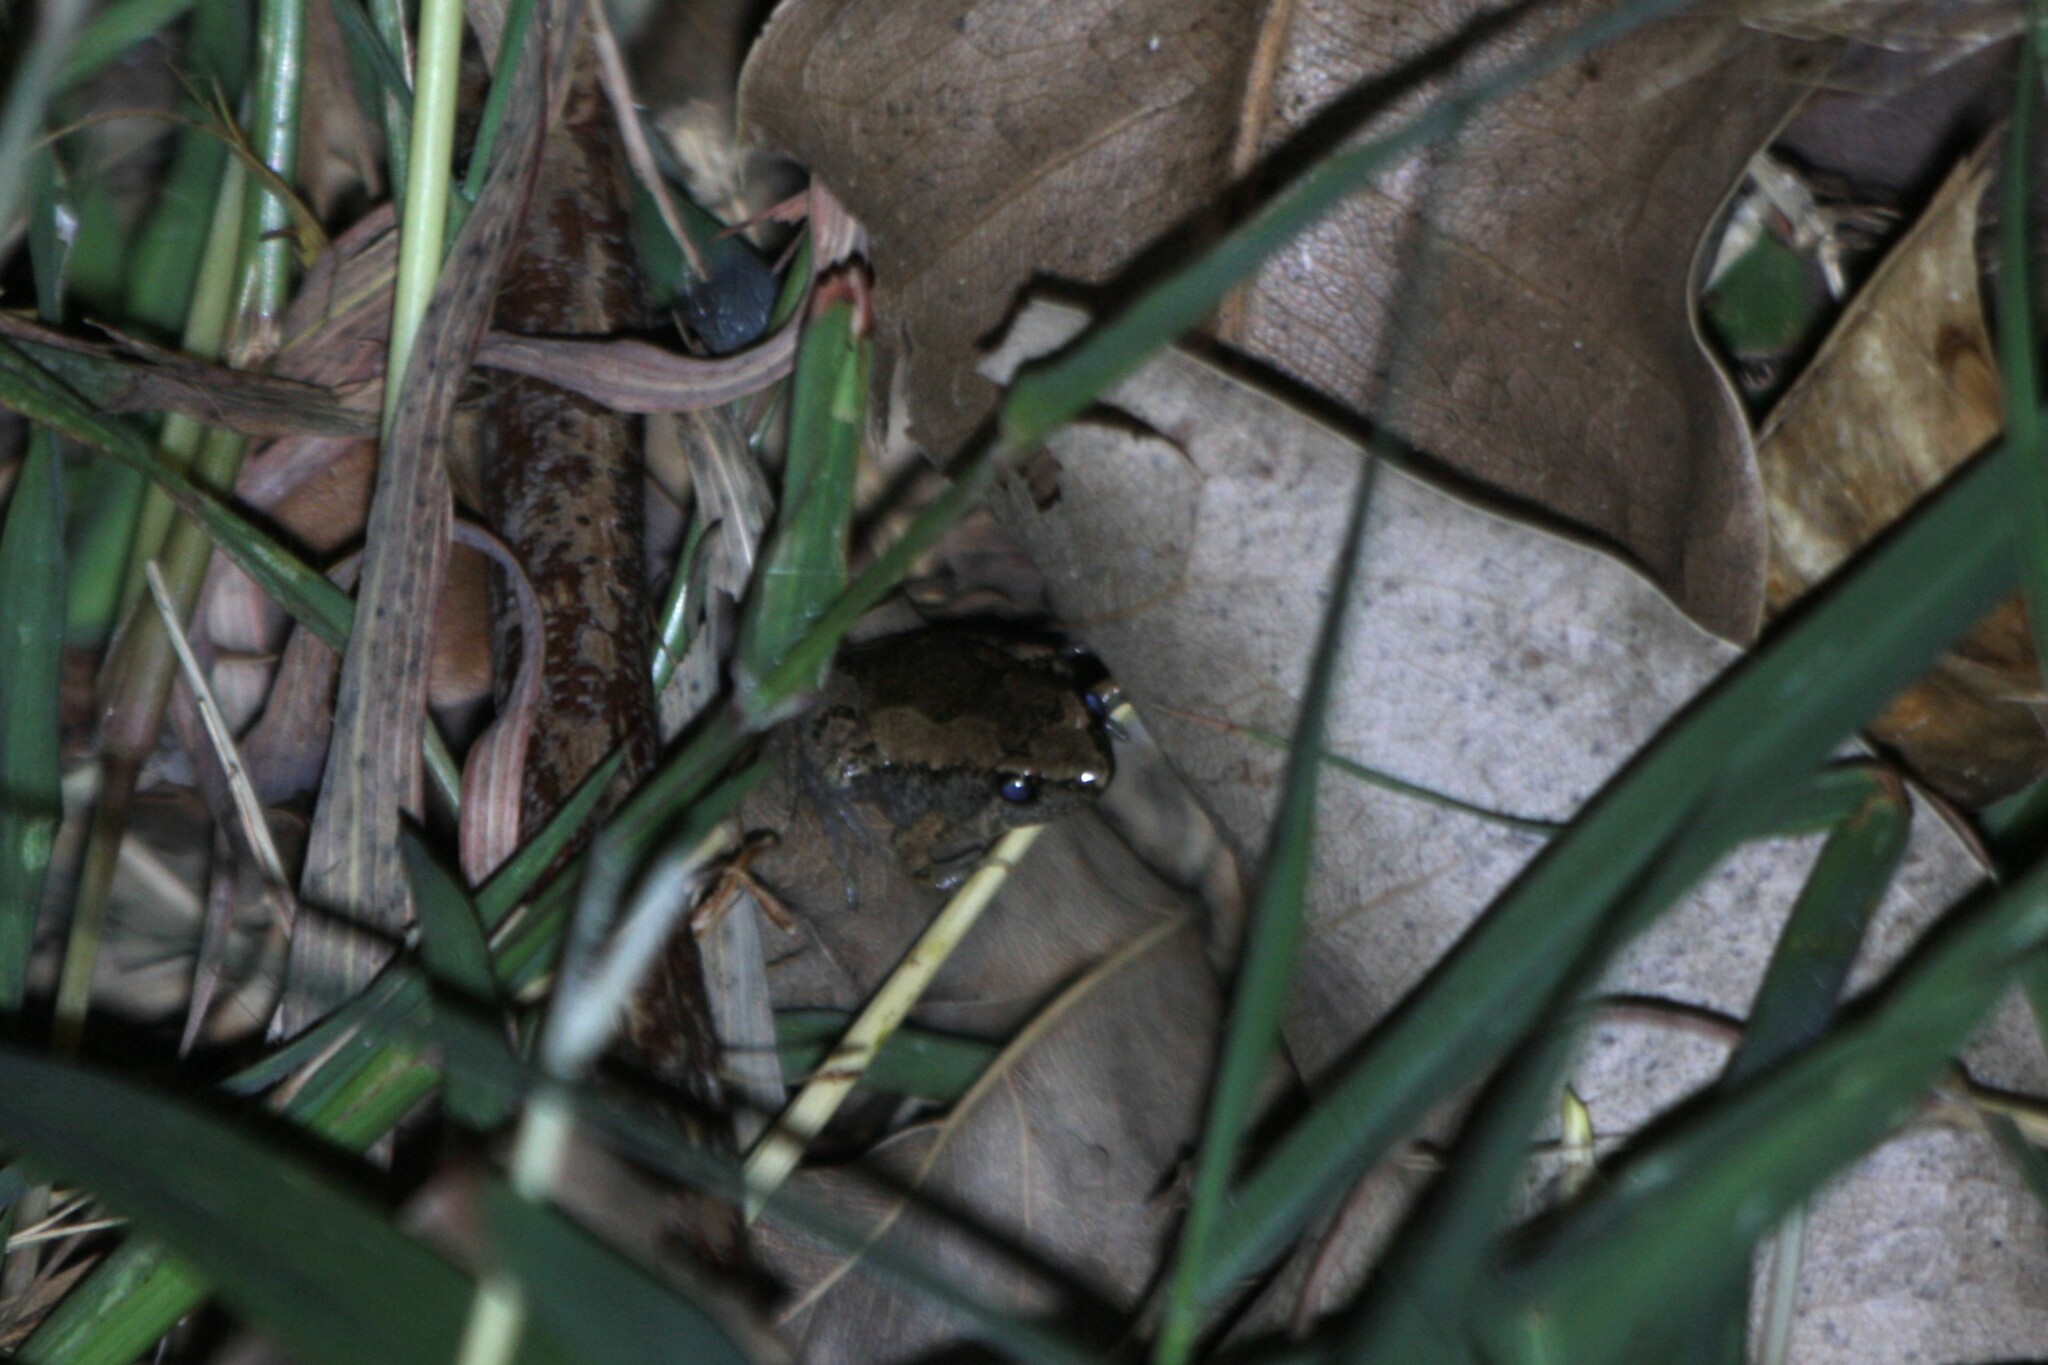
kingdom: Animalia
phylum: Chordata
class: Amphibia
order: Anura
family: Microhylidae
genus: Microhyla
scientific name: Microhyla fissipes
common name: Ornate narrow-mouthed frog
